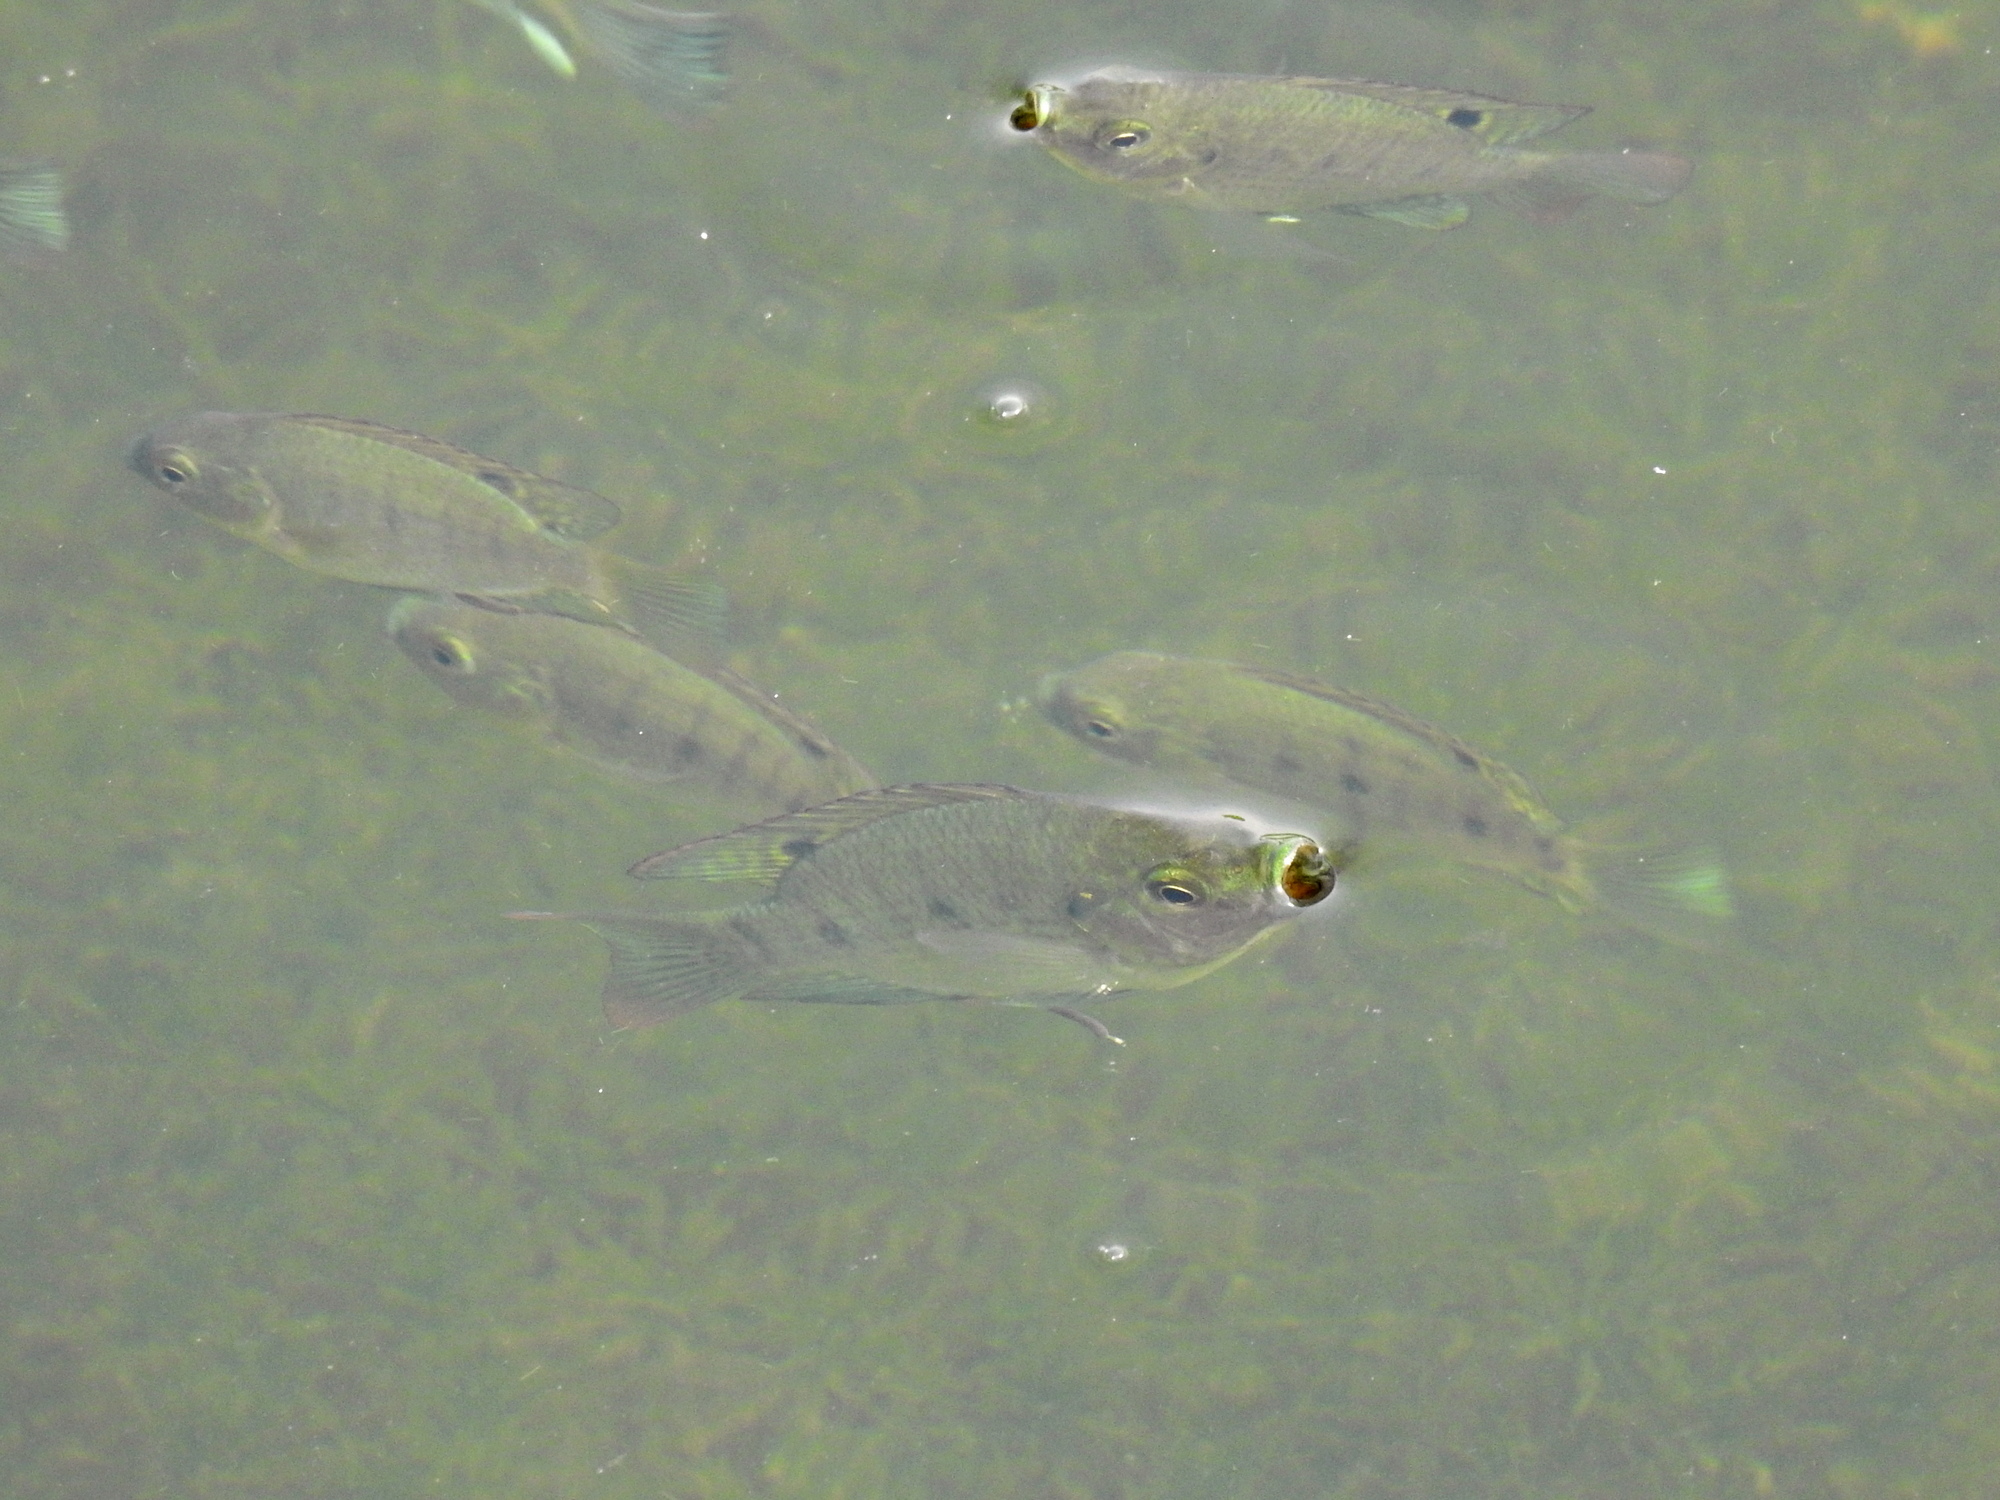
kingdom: Animalia
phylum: Chordata
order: Perciformes
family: Cichlidae
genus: Oreochromis
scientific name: Oreochromis mossambicus
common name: Mozambique tilapia
